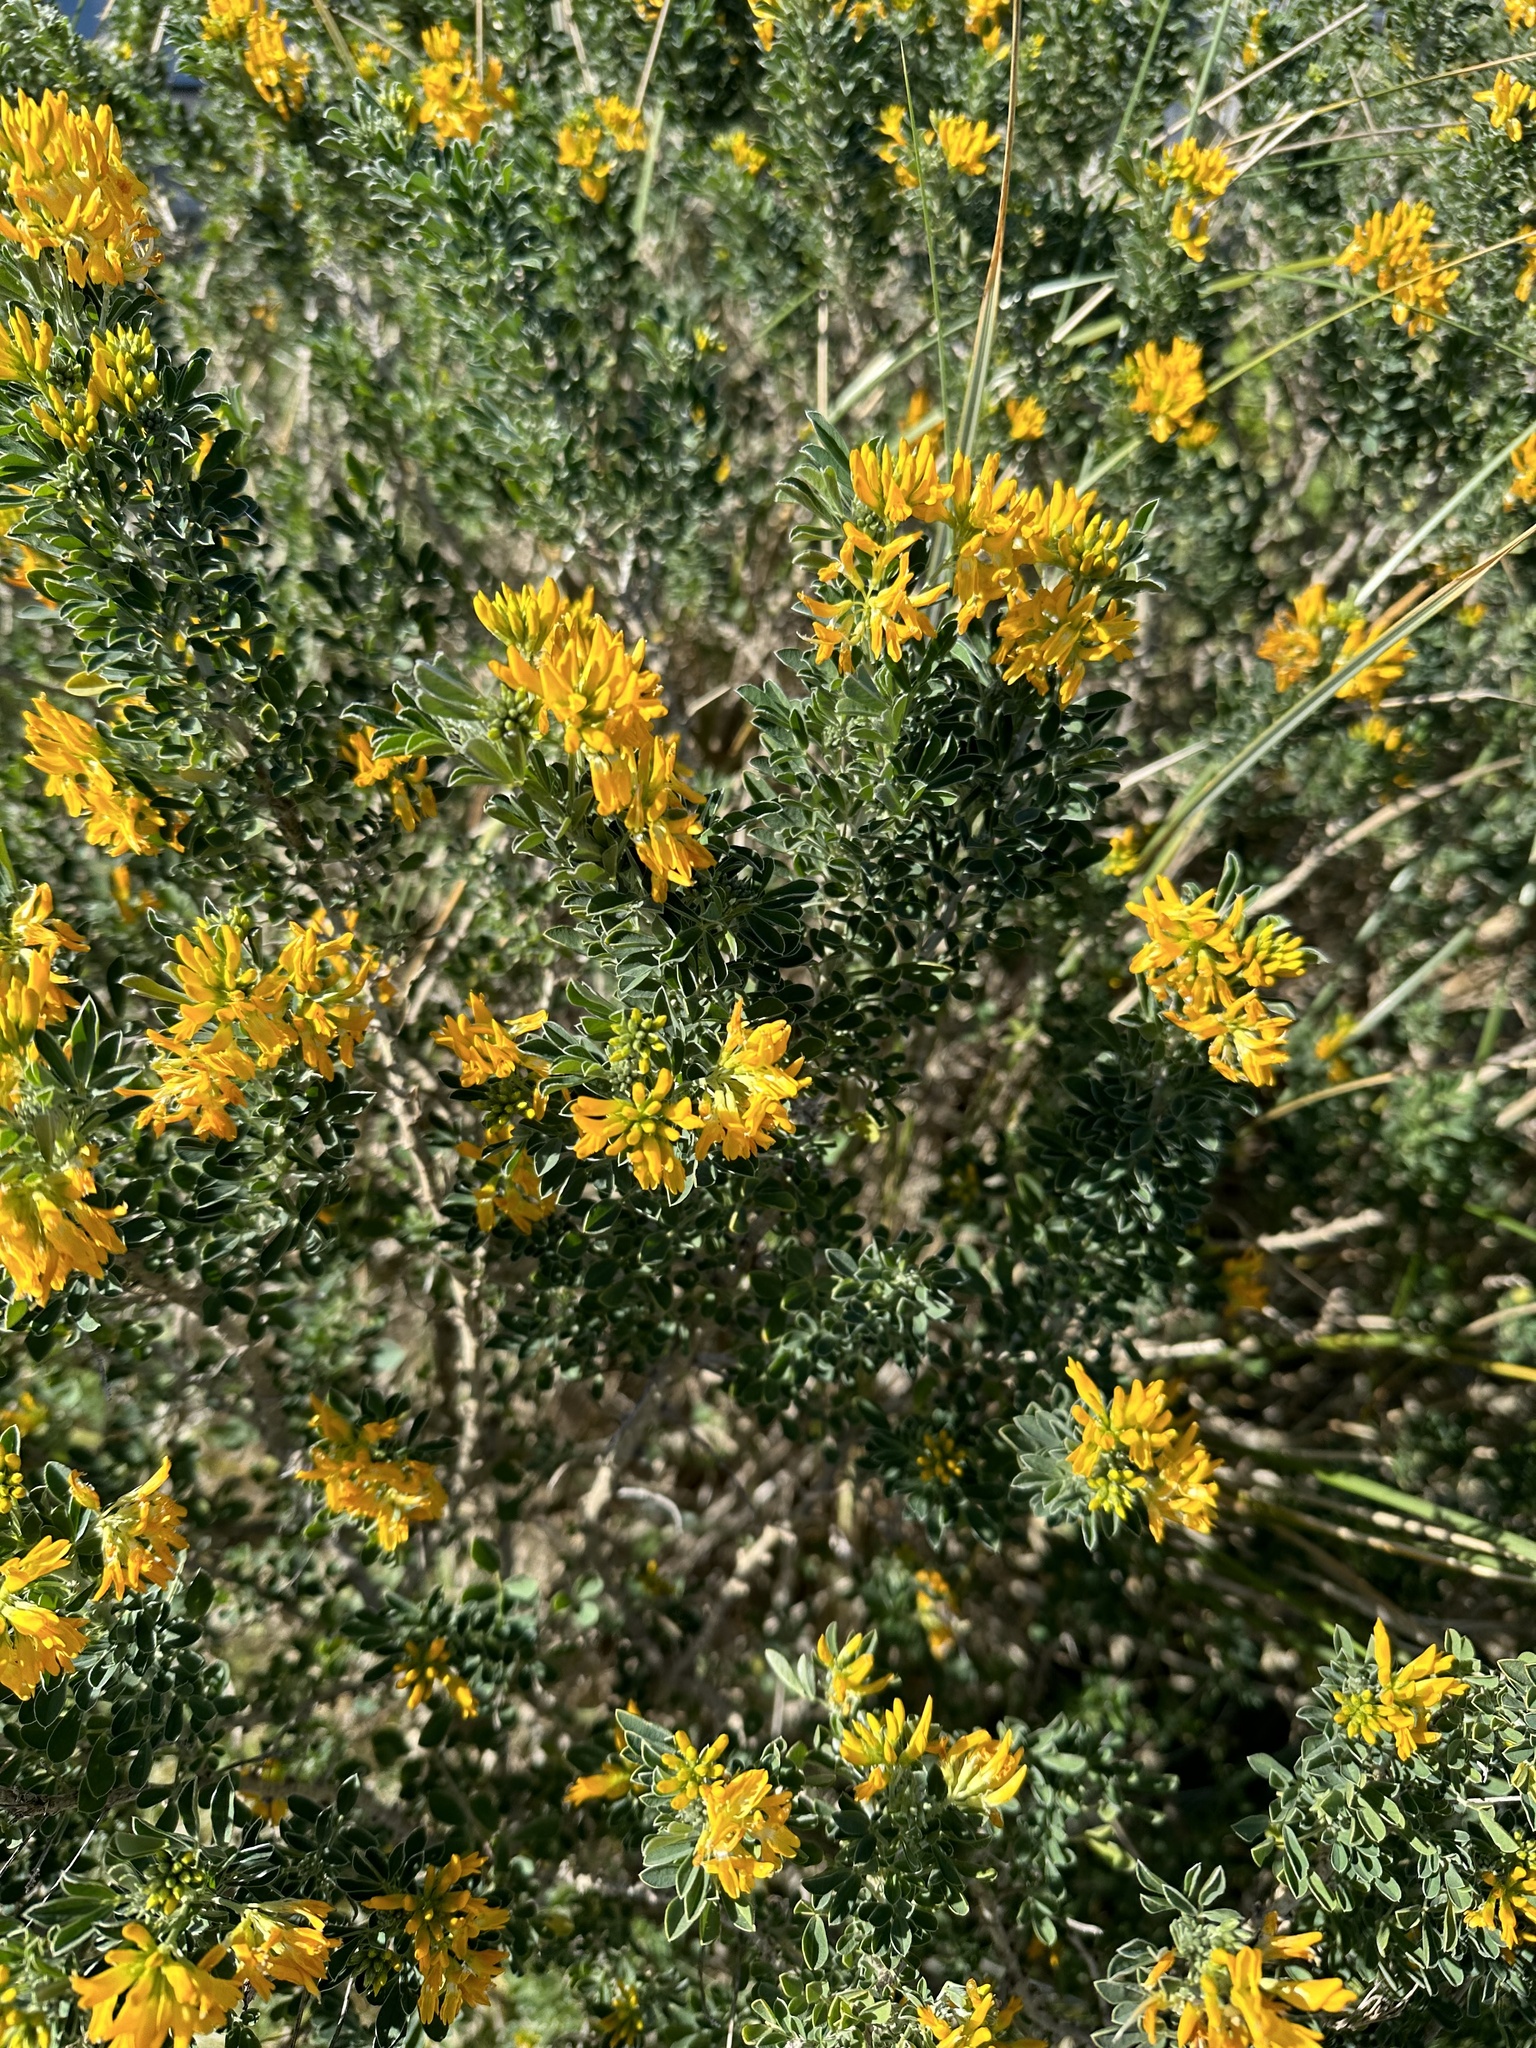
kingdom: Plantae
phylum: Tracheophyta
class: Magnoliopsida
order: Fabales
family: Fabaceae
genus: Medicago
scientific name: Medicago arborea
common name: Moon trefoil
